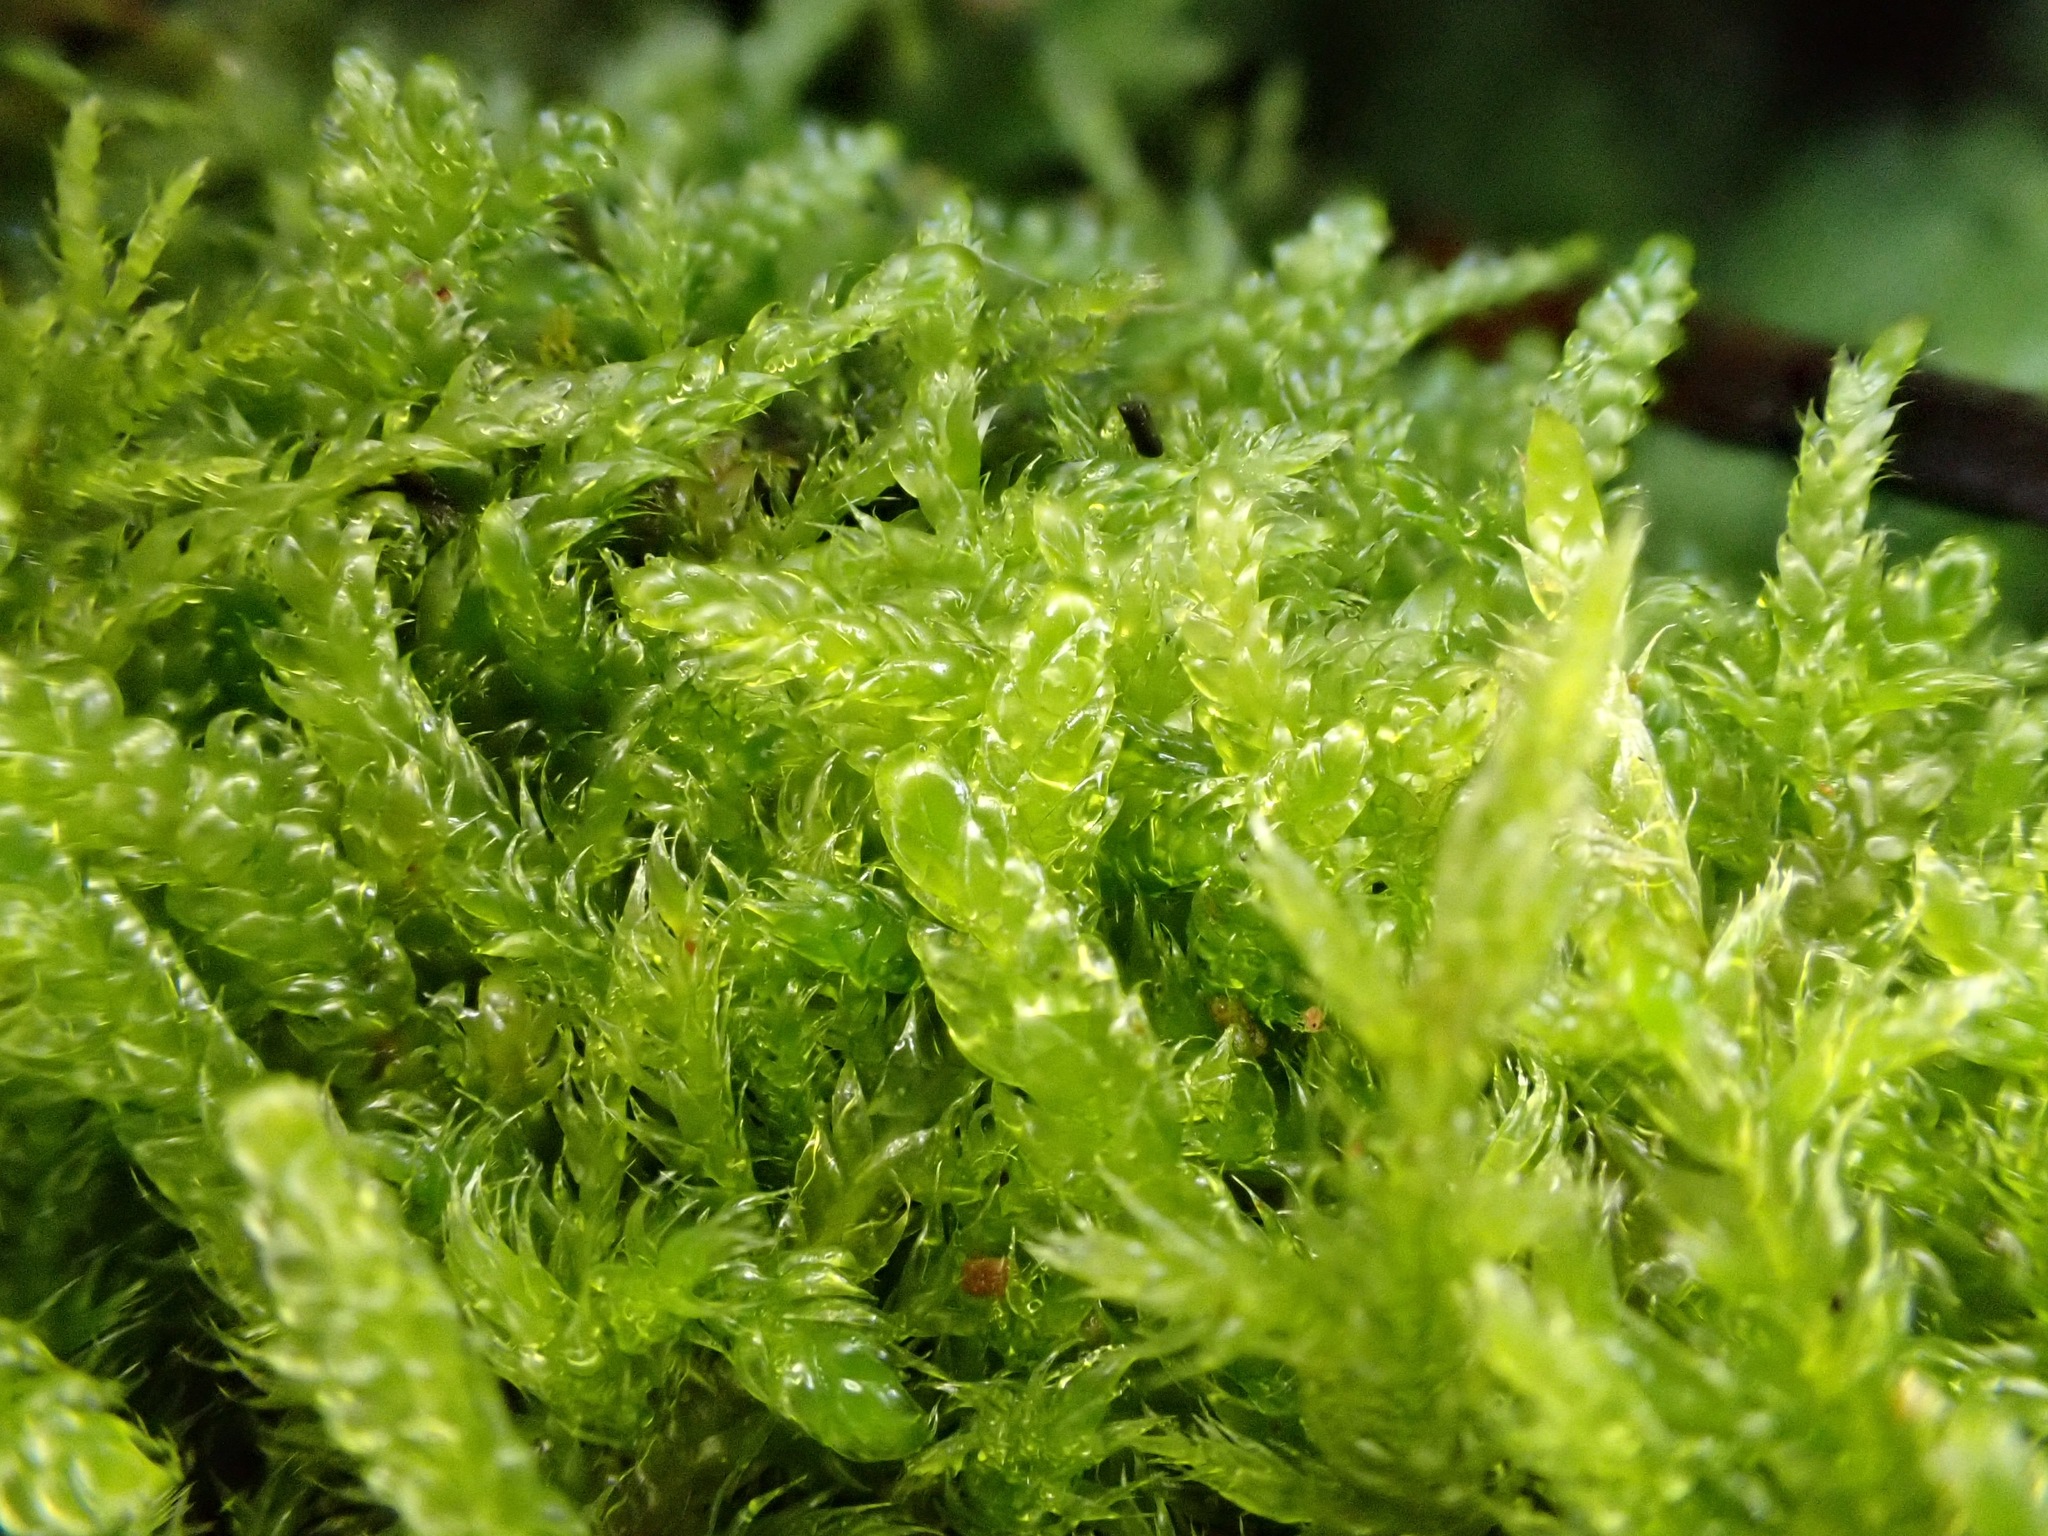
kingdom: Plantae
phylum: Bryophyta
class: Bryopsida
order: Hypnales
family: Hypnaceae
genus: Hypnum
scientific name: Hypnum cupressiforme
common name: Cypress-leaved plait-moss
